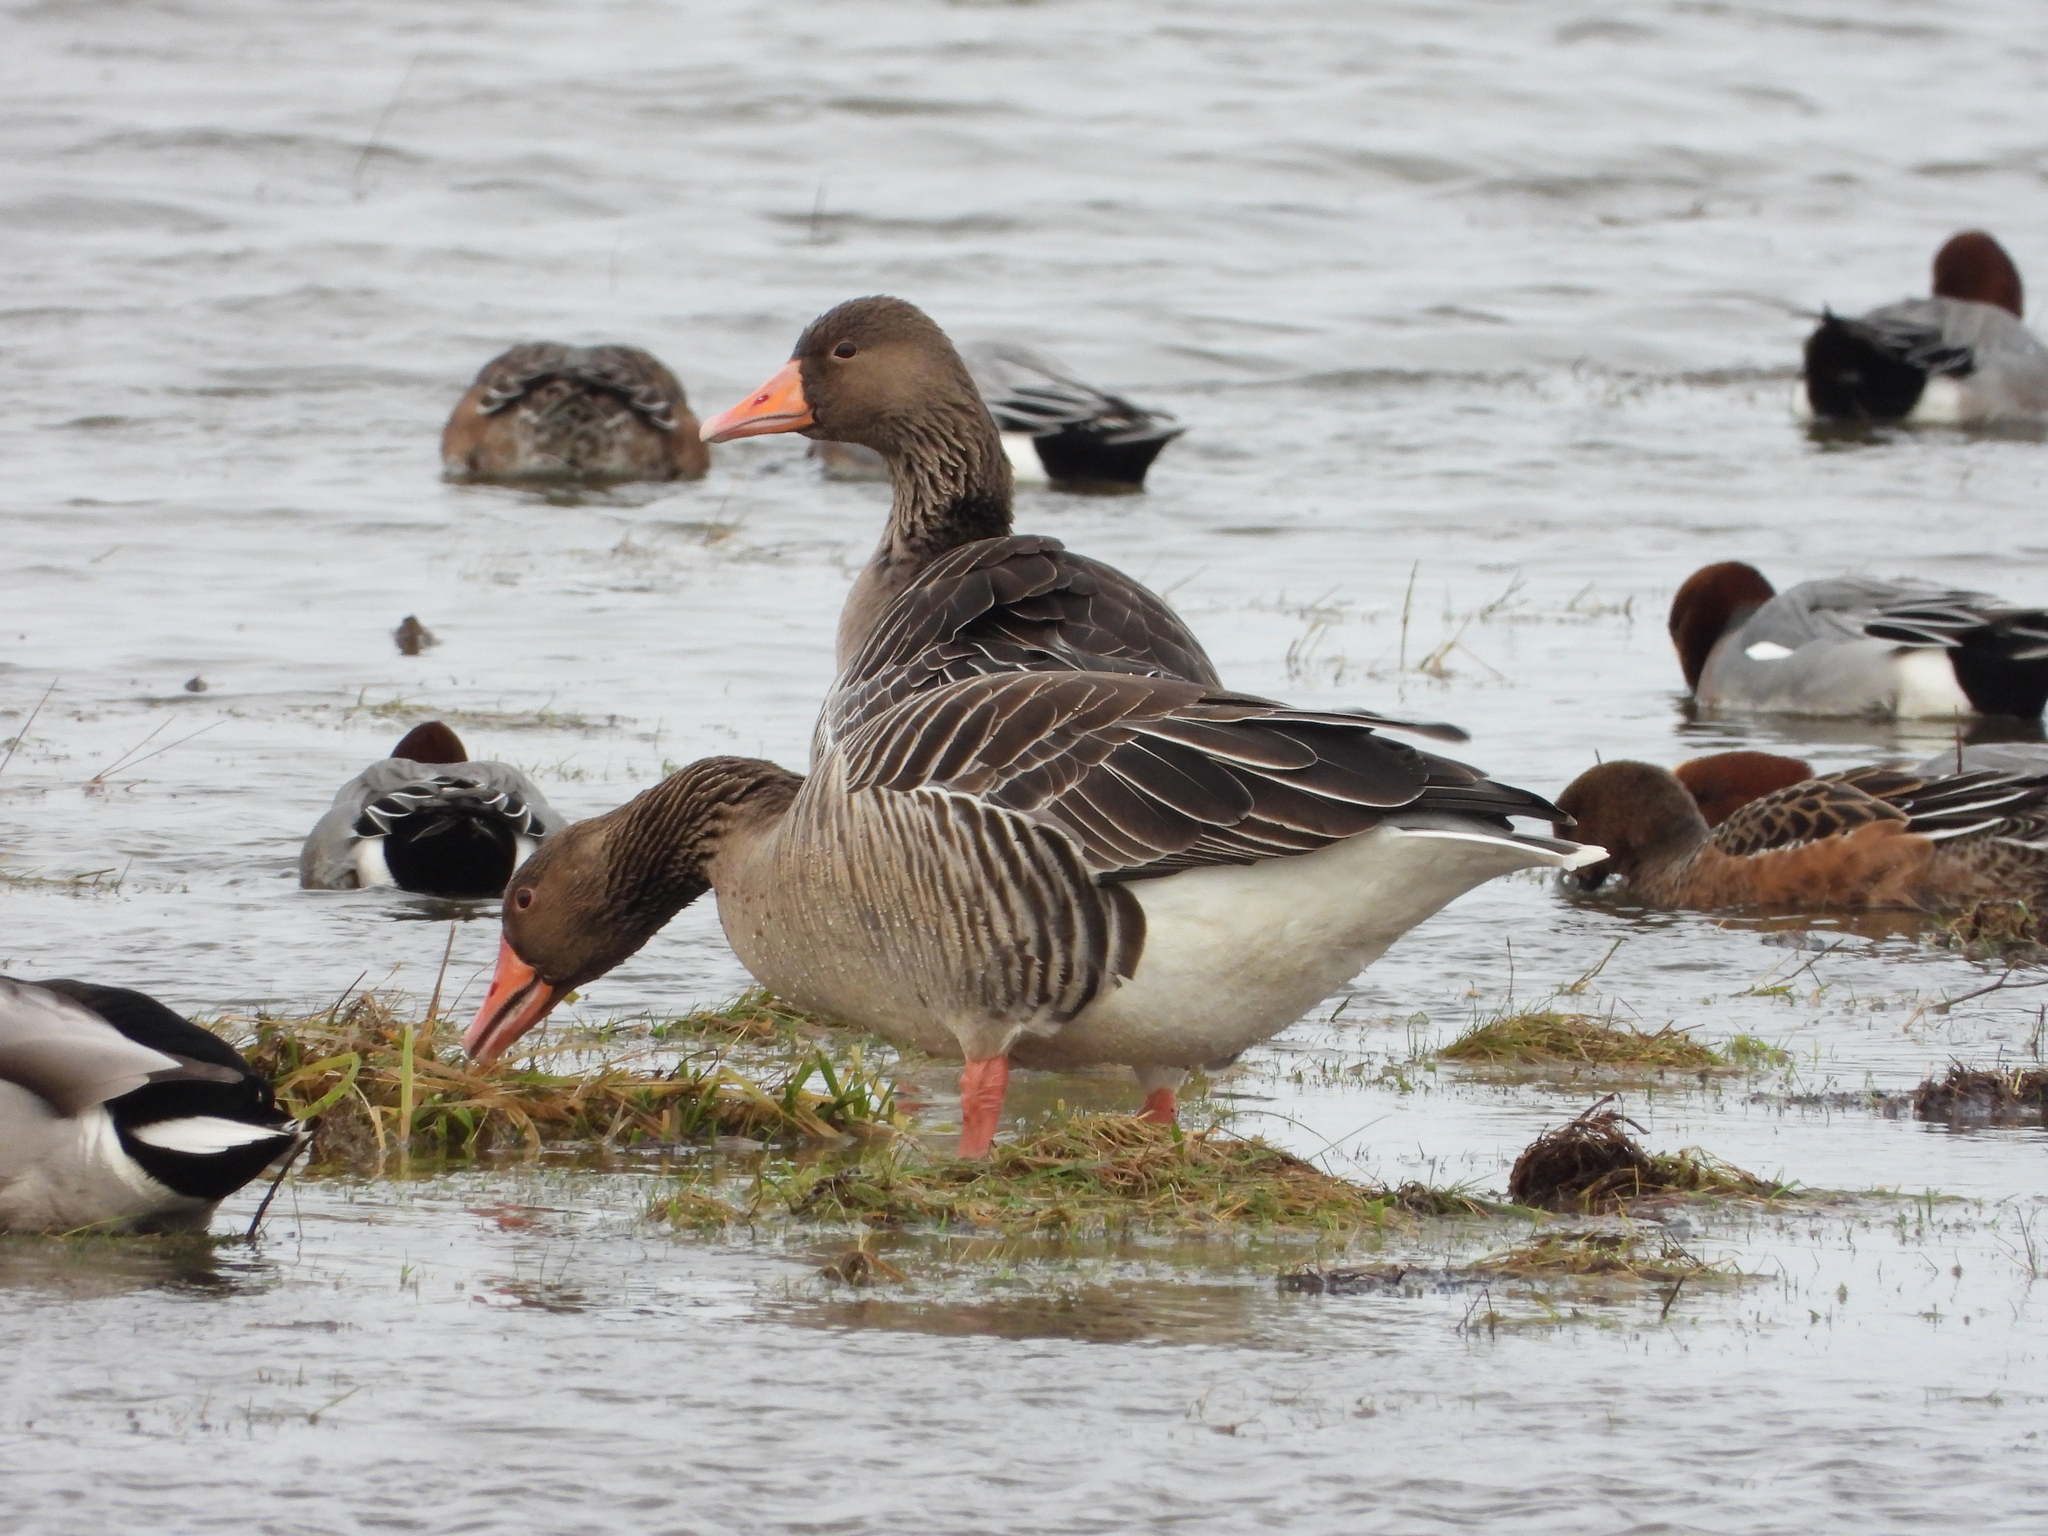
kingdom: Animalia
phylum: Chordata
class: Aves
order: Anseriformes
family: Anatidae
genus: Anser
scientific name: Anser anser
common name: Greylag goose
